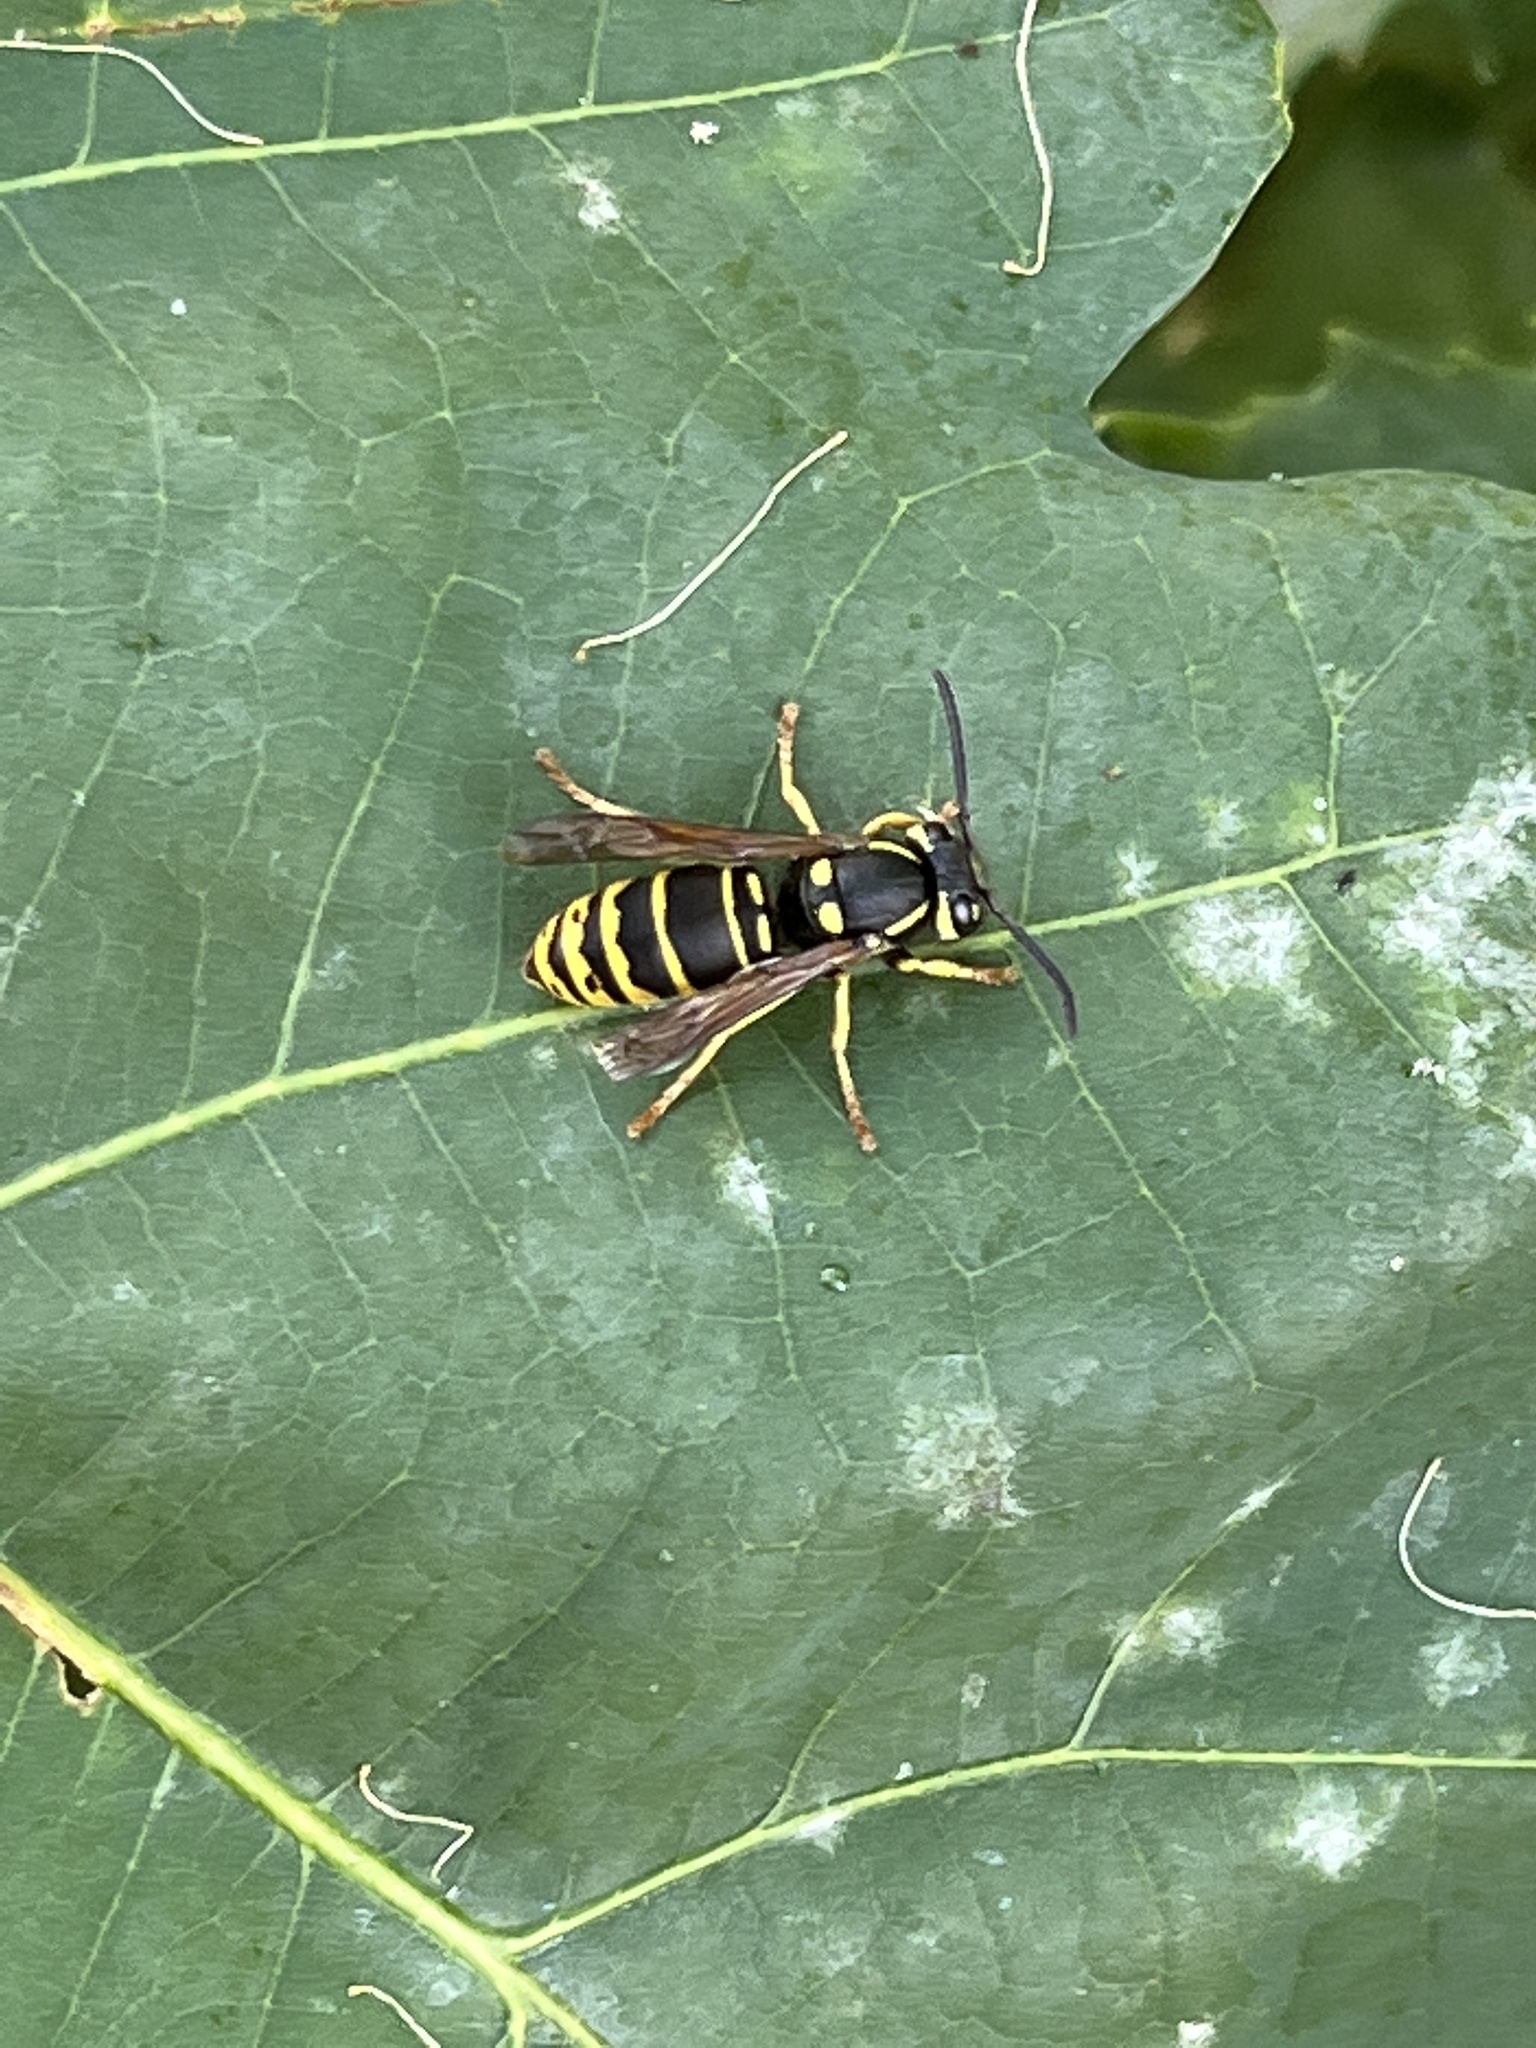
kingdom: Animalia
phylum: Arthropoda
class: Insecta
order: Hymenoptera
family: Vespidae
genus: Vespula
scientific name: Vespula vidua
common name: Widow yellowjacket
